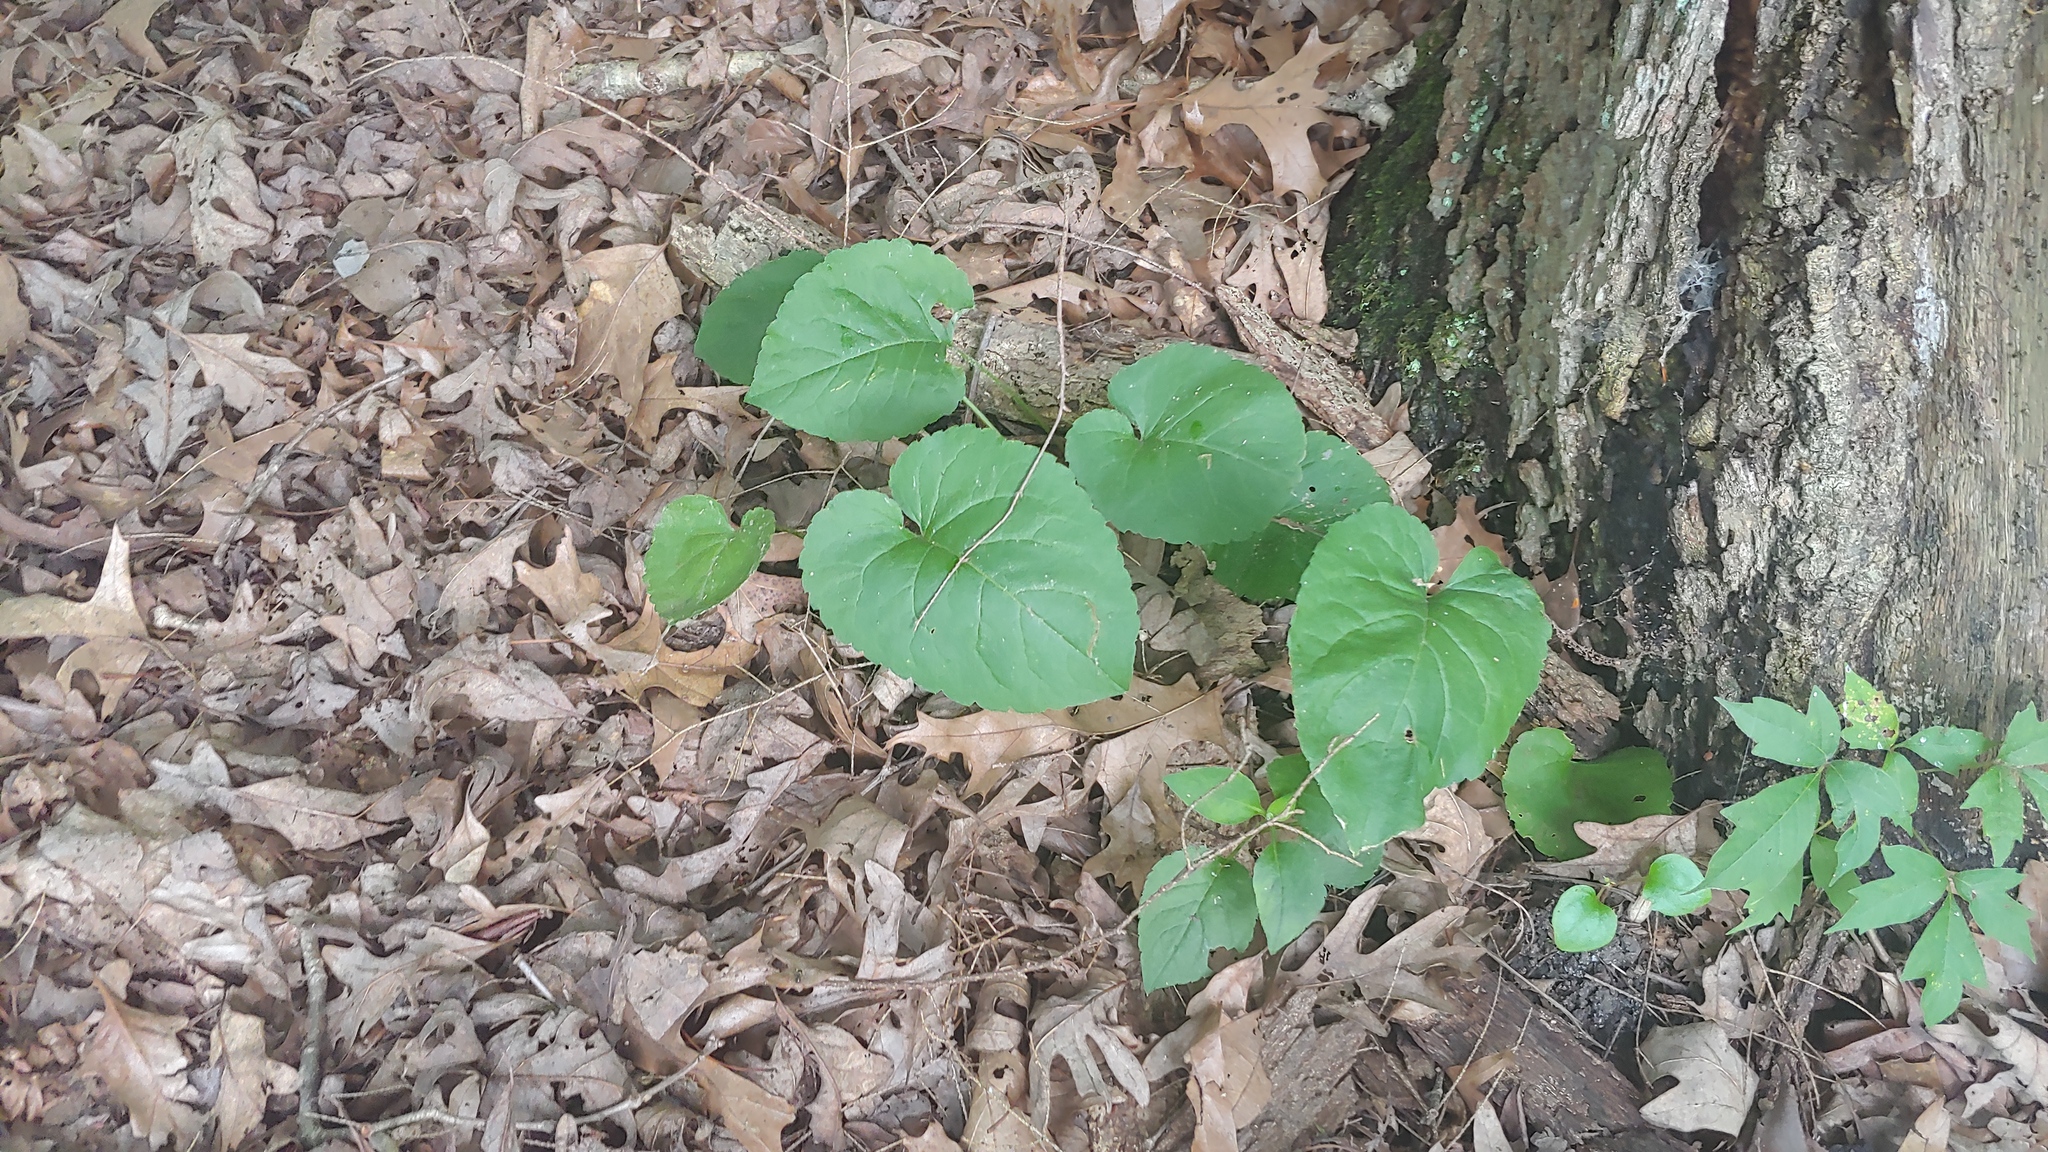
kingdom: Plantae
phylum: Tracheophyta
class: Magnoliopsida
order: Asterales
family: Asteraceae
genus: Eurybia
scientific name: Eurybia macrophylla
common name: Big-leaved aster
